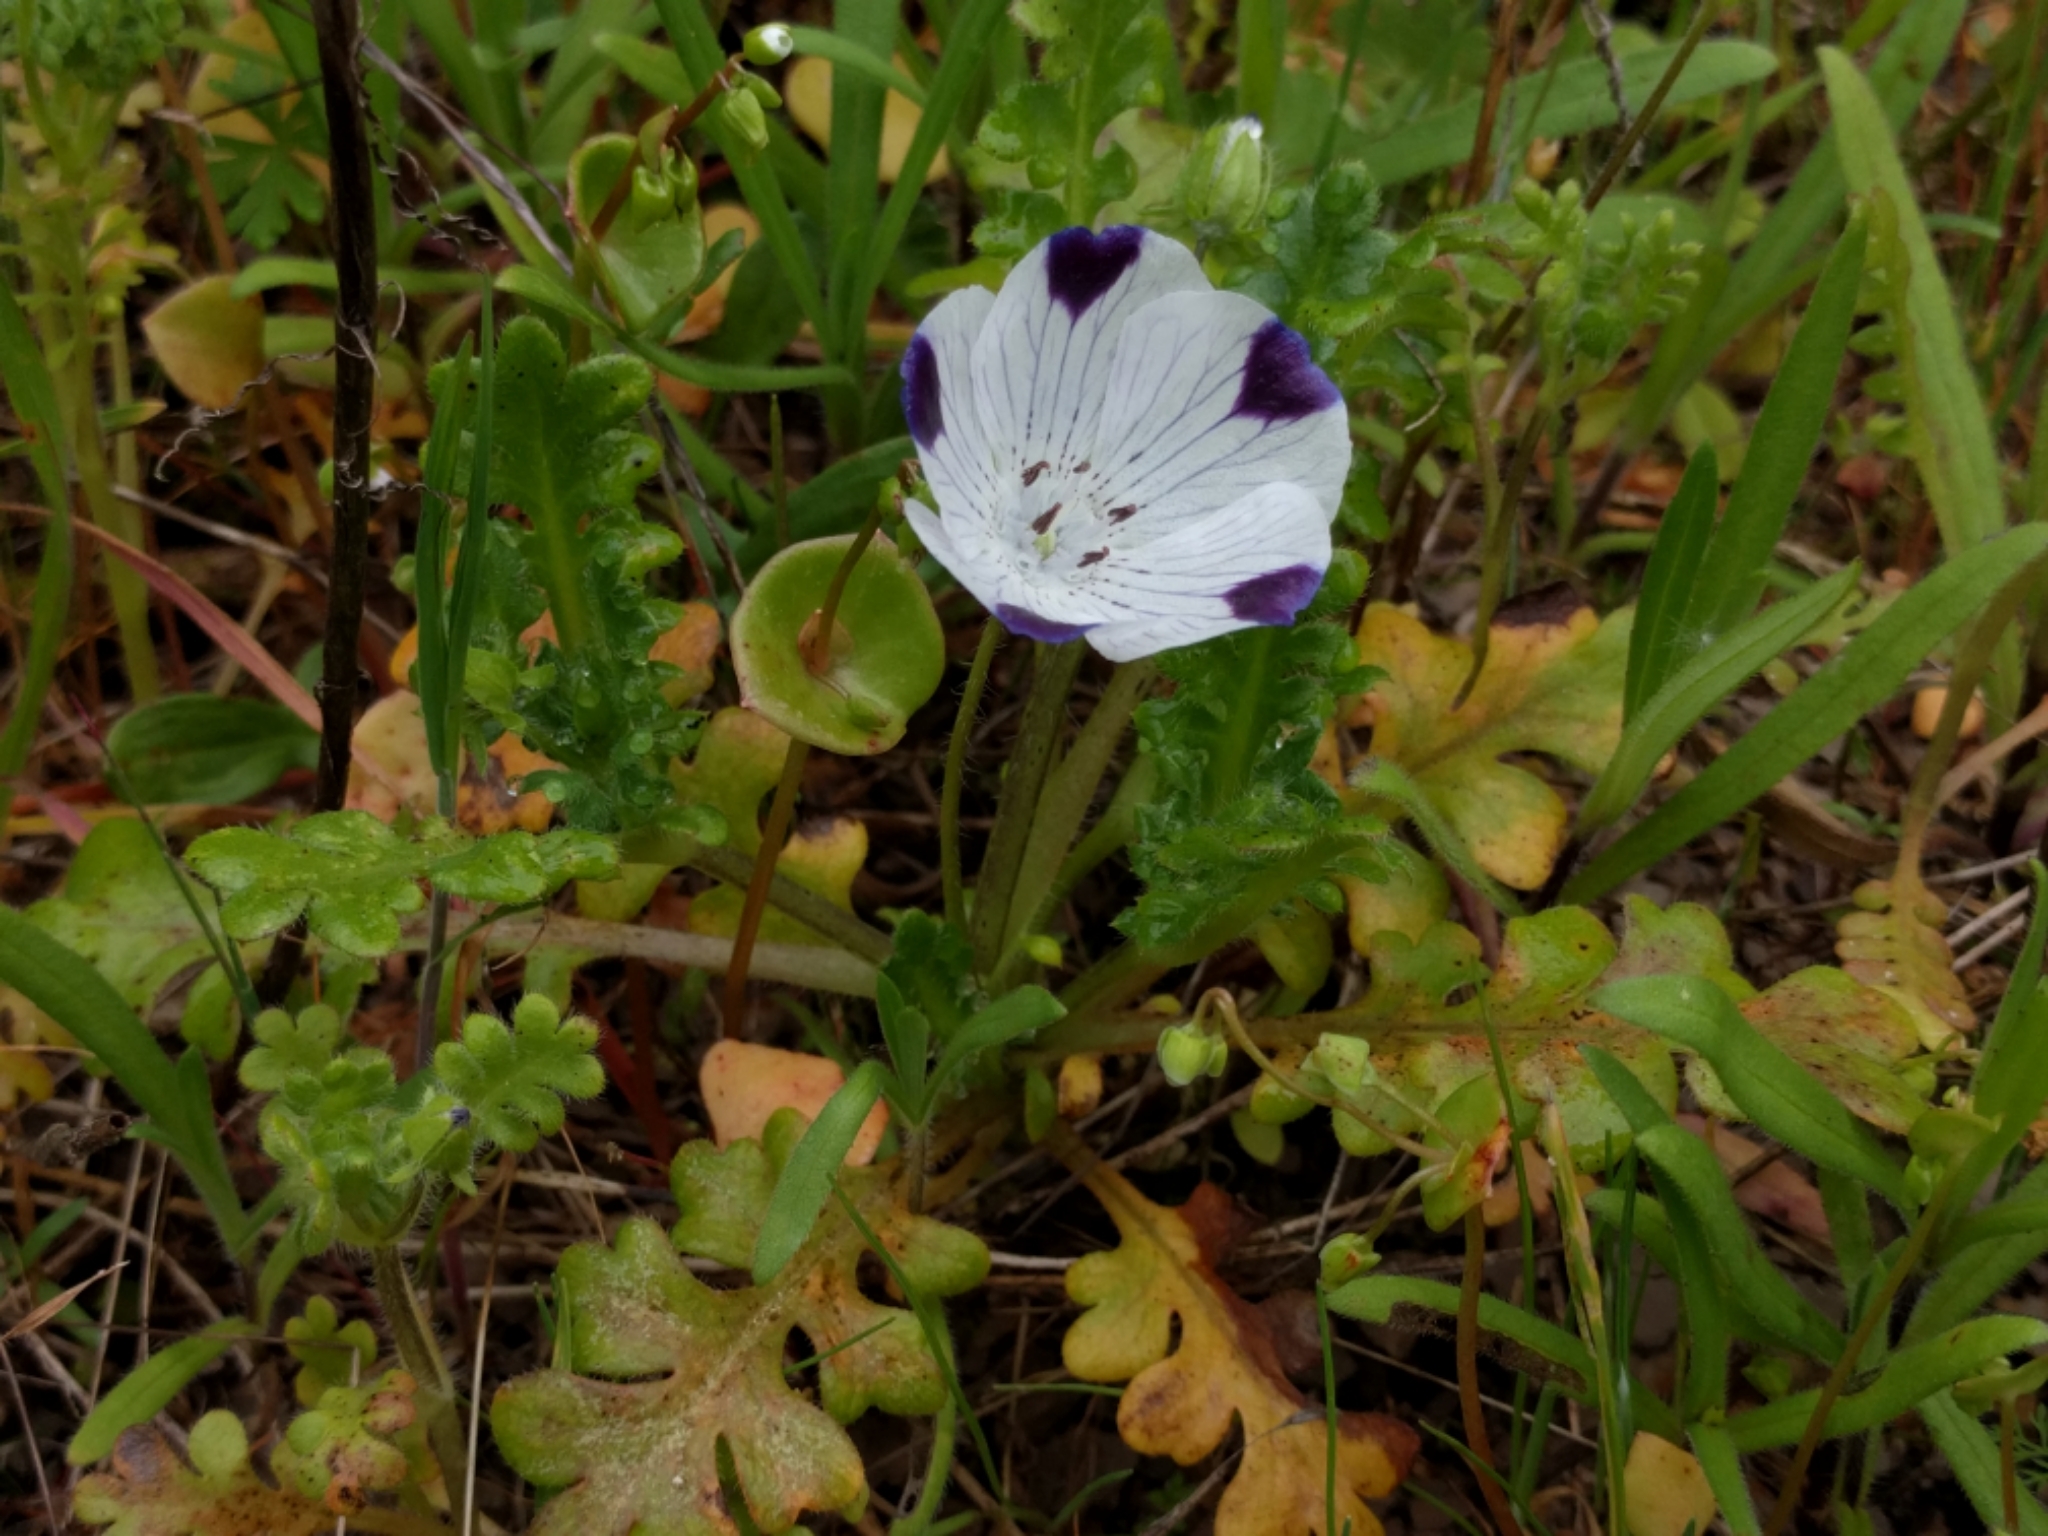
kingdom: Plantae
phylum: Tracheophyta
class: Magnoliopsida
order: Boraginales
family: Hydrophyllaceae
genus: Nemophila
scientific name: Nemophila maculata
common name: Fivespot
